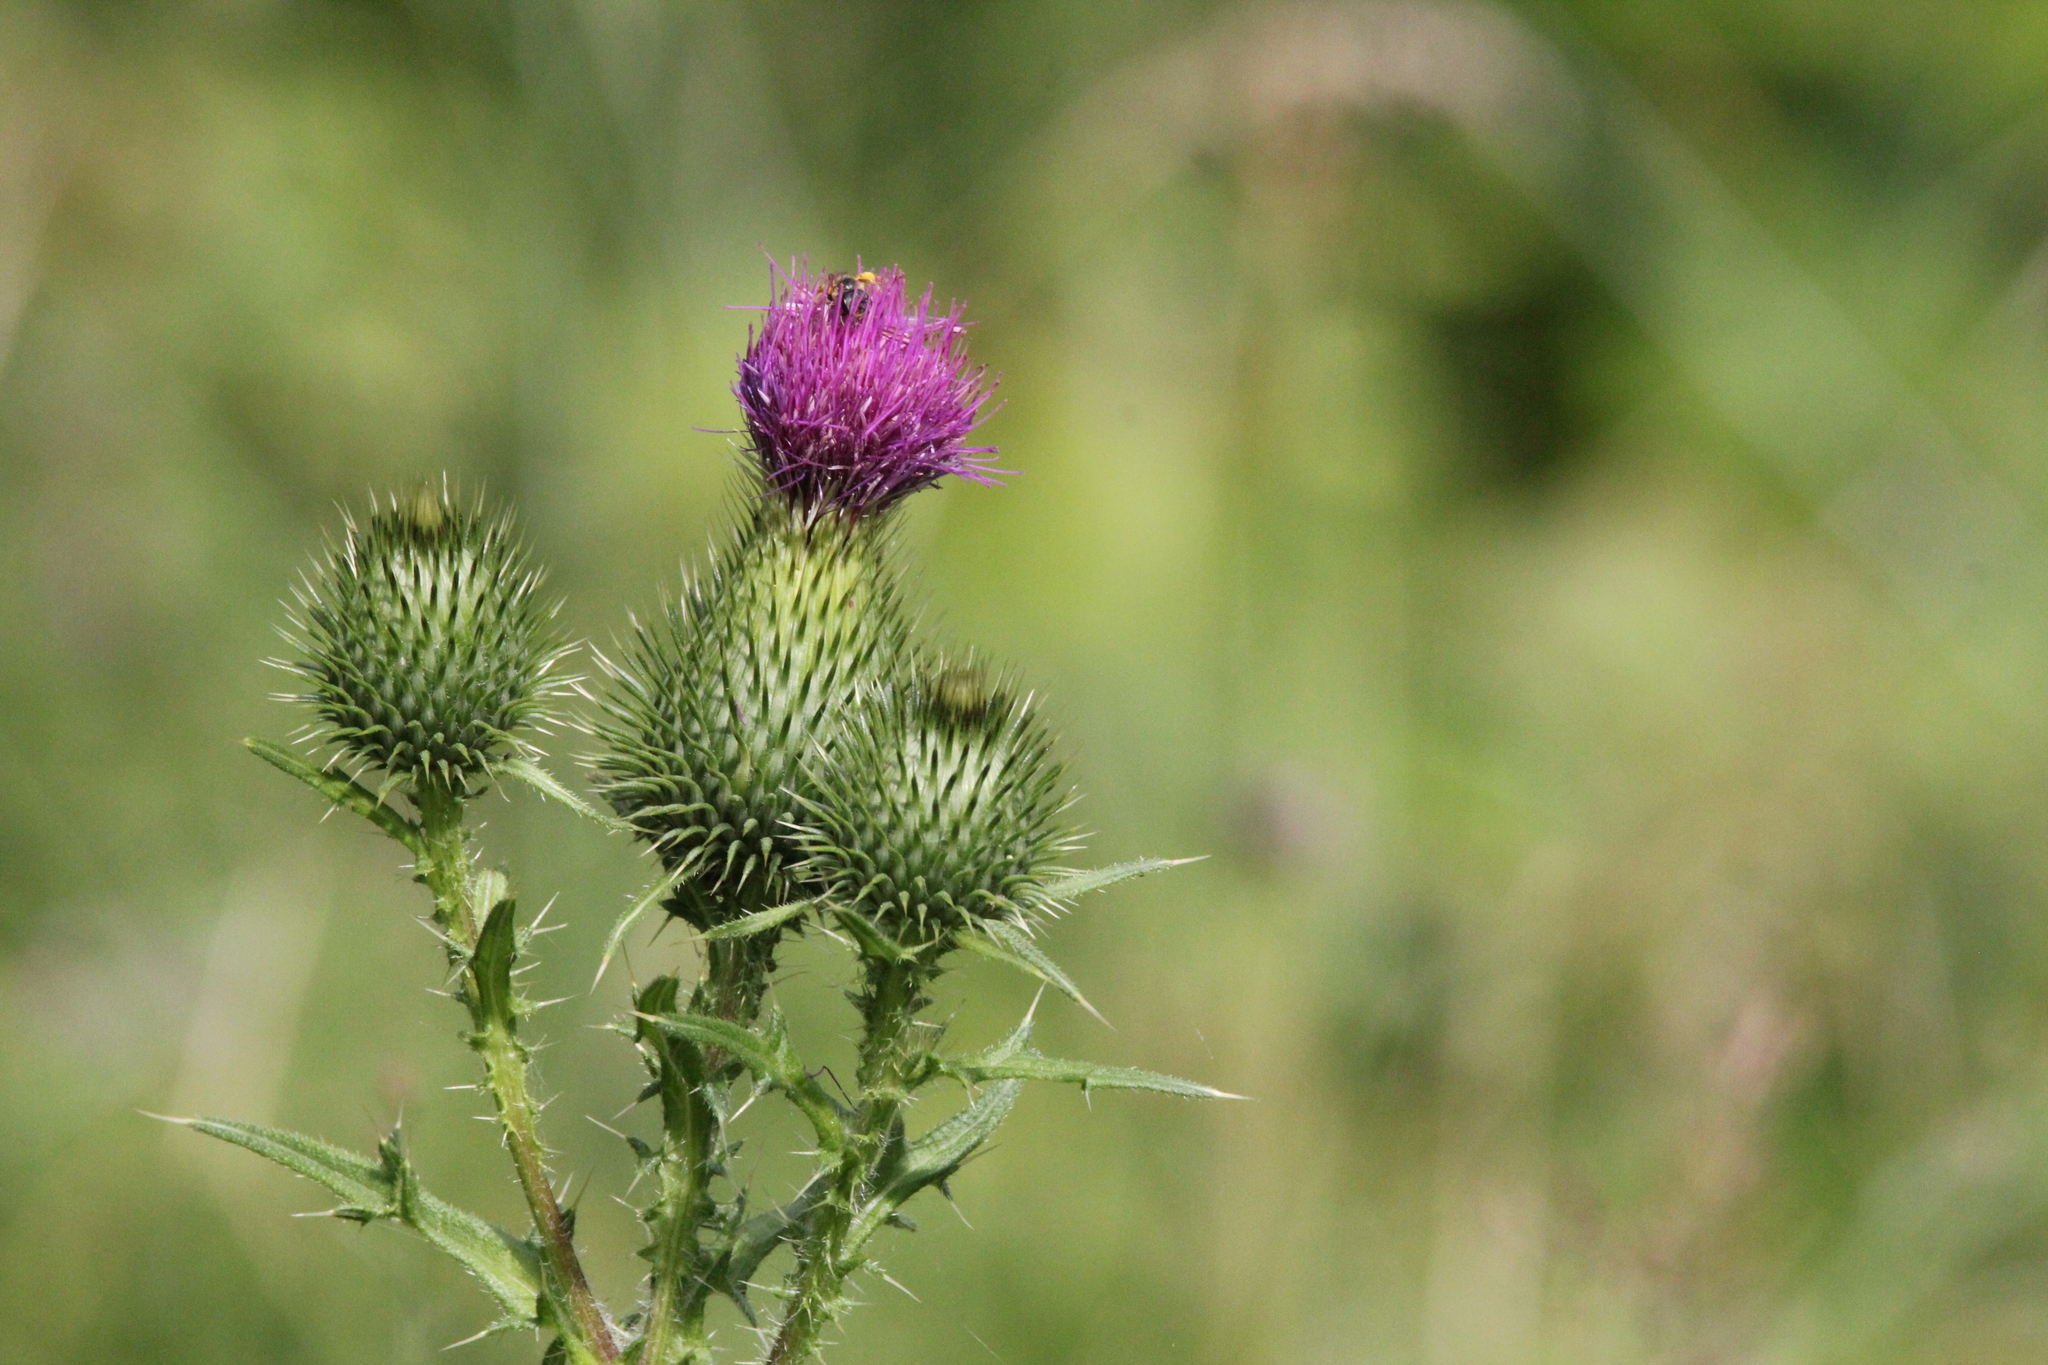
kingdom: Plantae
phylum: Tracheophyta
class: Magnoliopsida
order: Asterales
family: Asteraceae
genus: Cirsium
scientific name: Cirsium vulgare
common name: Bull thistle
